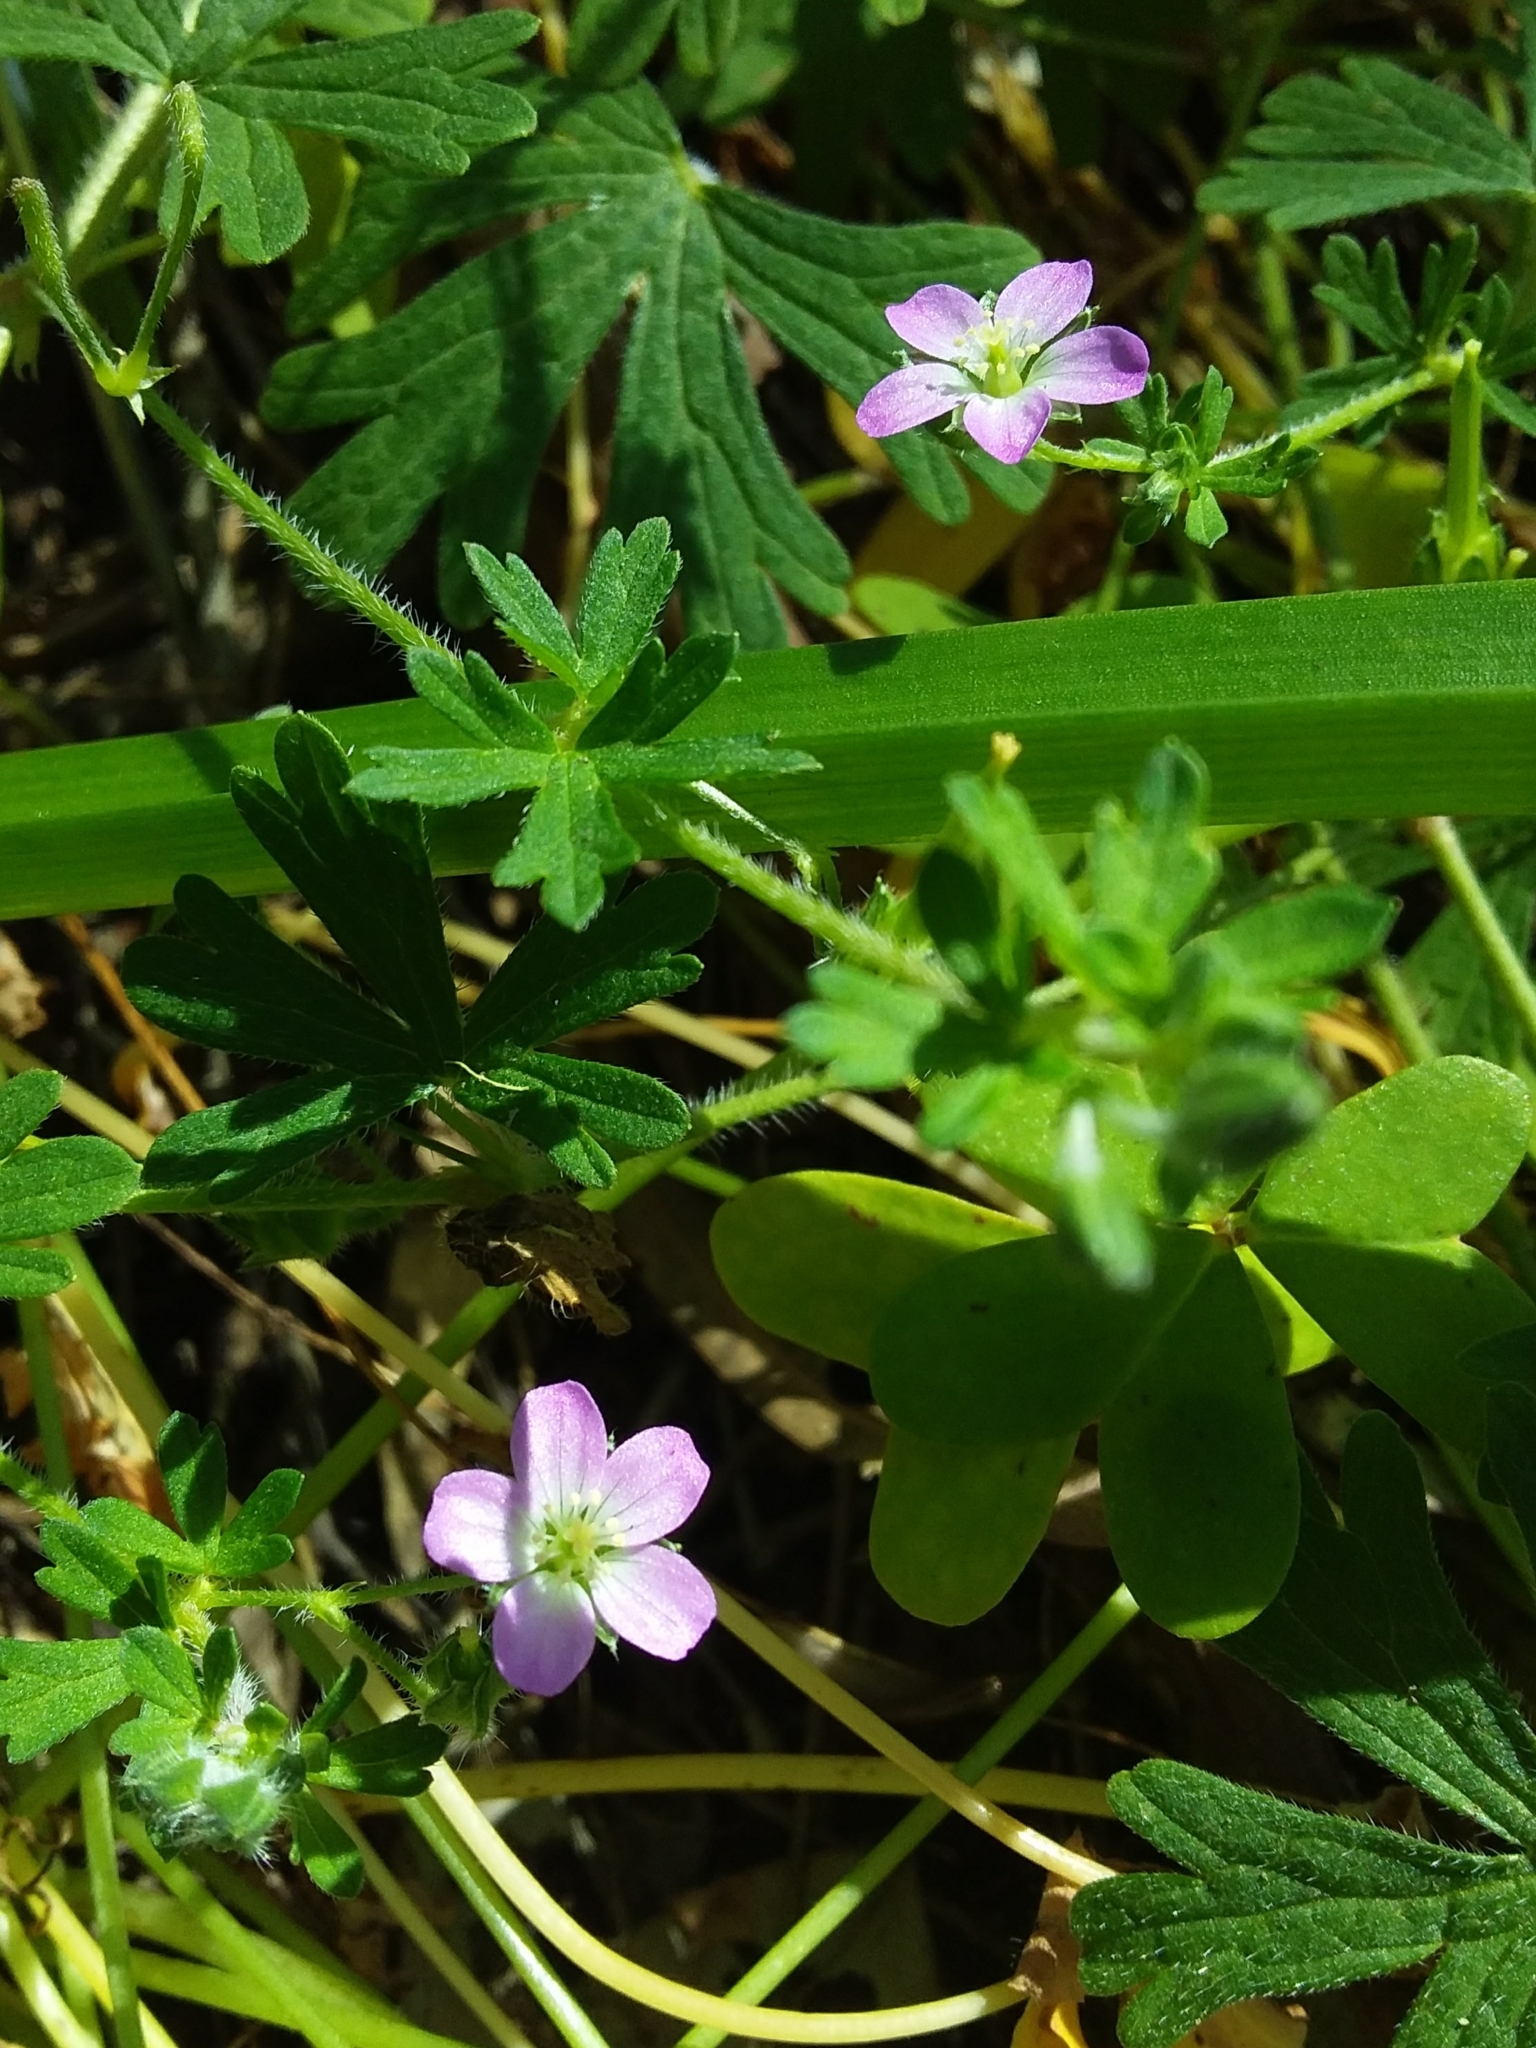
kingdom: Plantae
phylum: Tracheophyta
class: Magnoliopsida
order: Geraniales
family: Geraniaceae
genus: Geranium
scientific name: Geranium solanderi
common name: Solander's geranium
